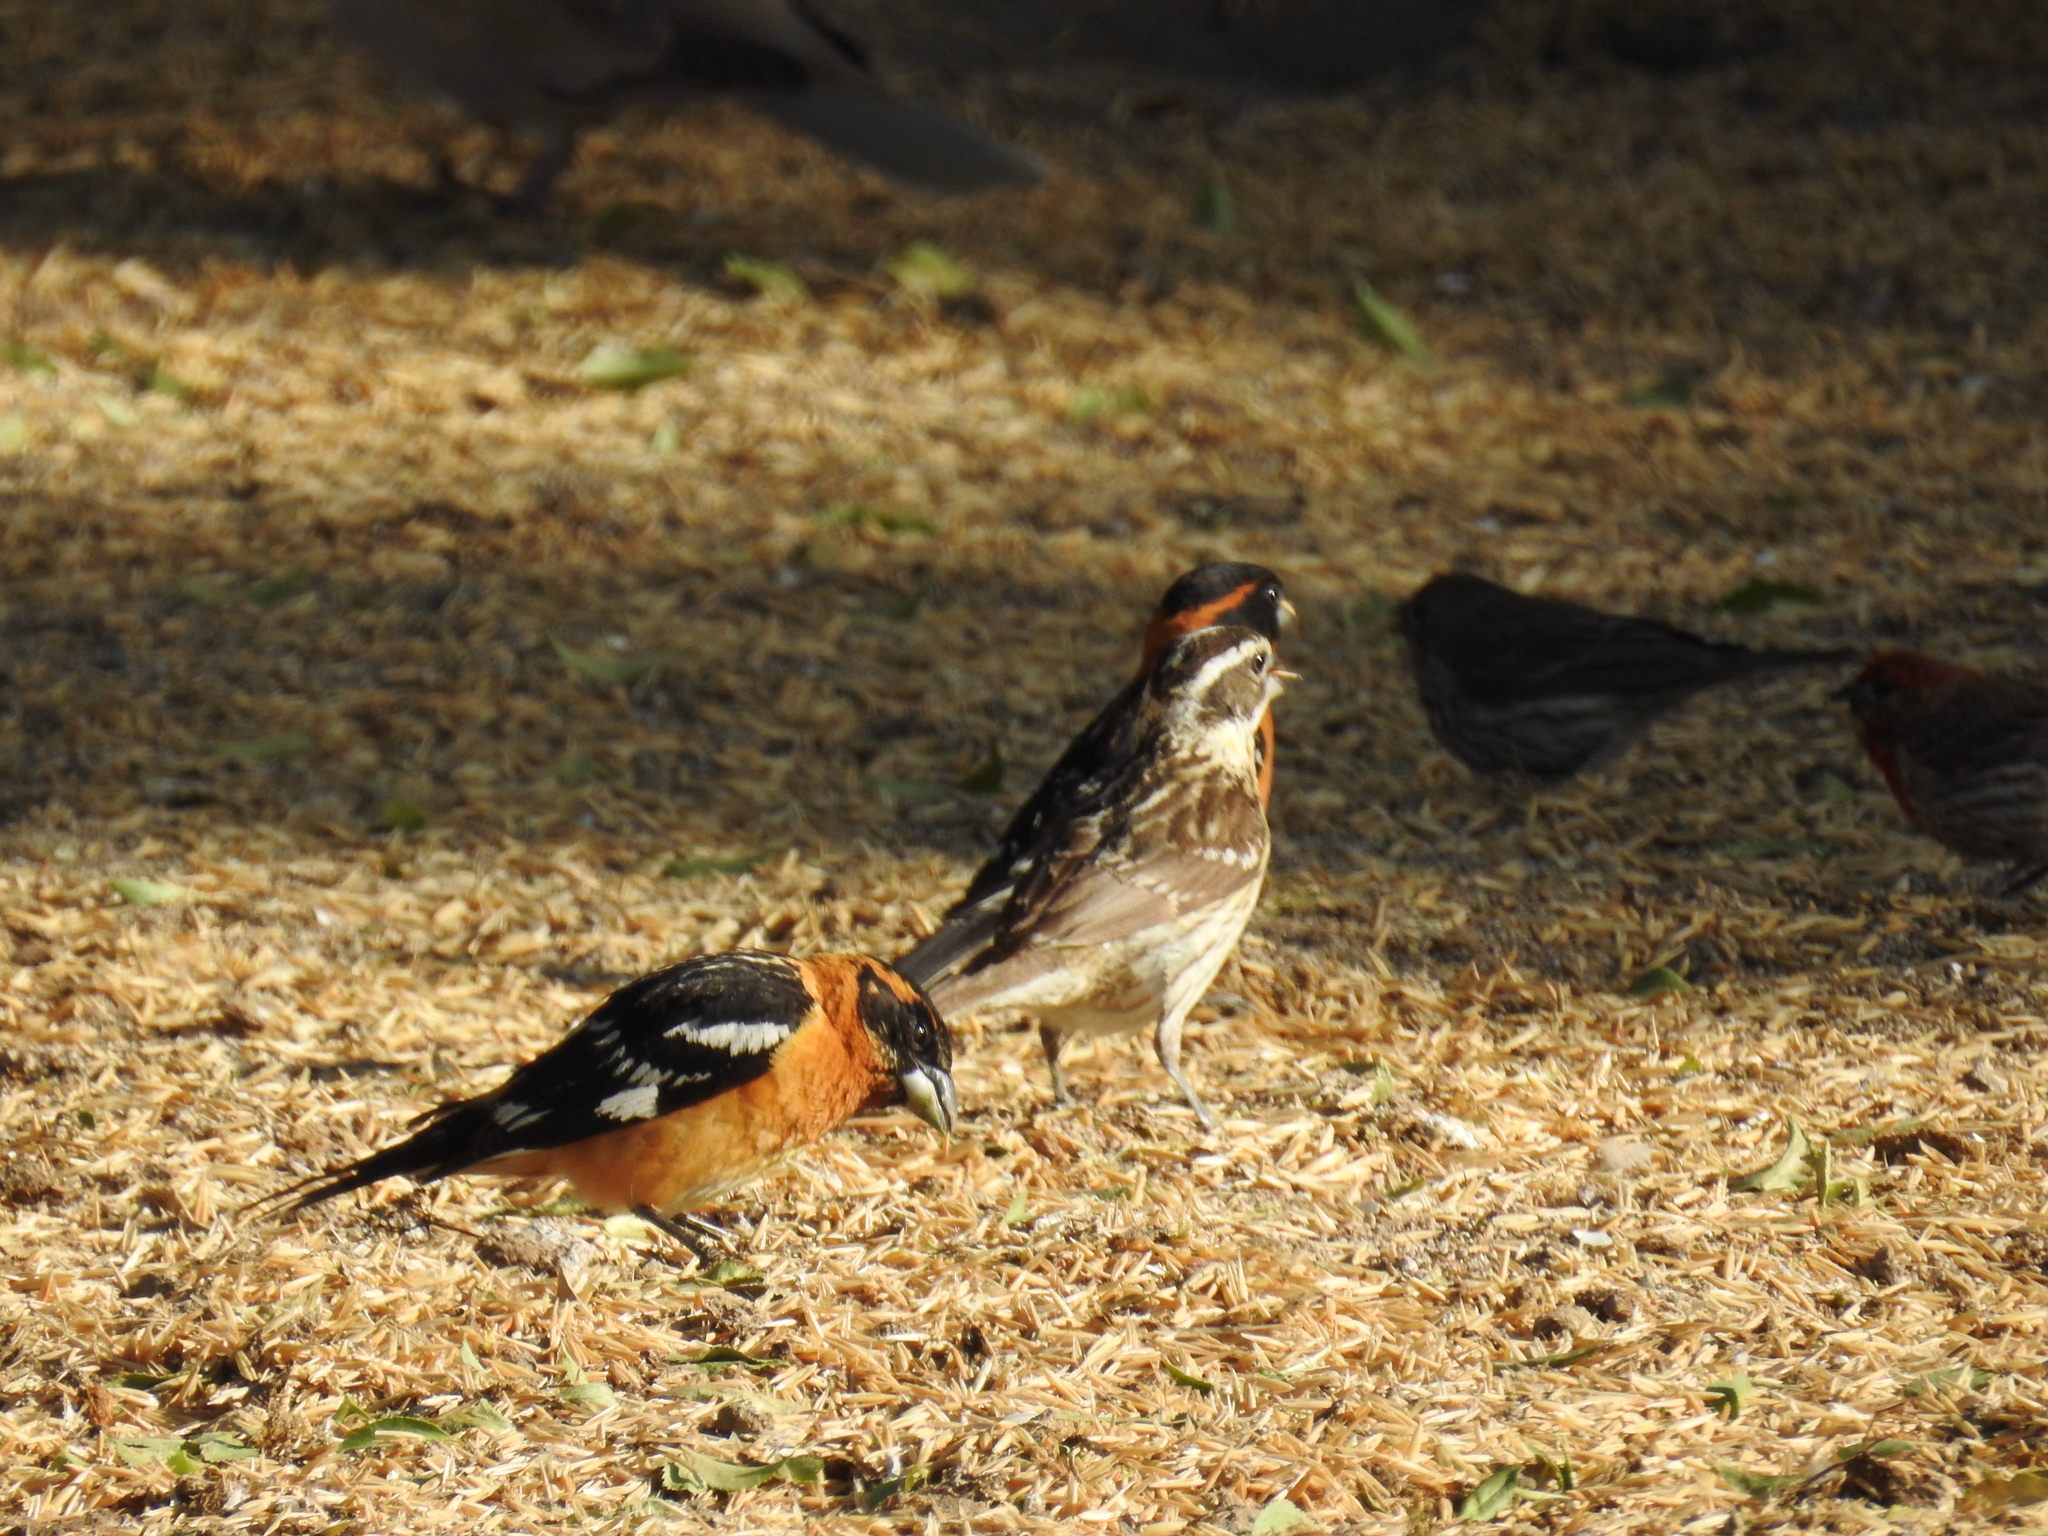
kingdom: Animalia
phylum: Chordata
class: Aves
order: Passeriformes
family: Cardinalidae
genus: Pheucticus
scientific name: Pheucticus melanocephalus
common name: Black-headed grosbeak
